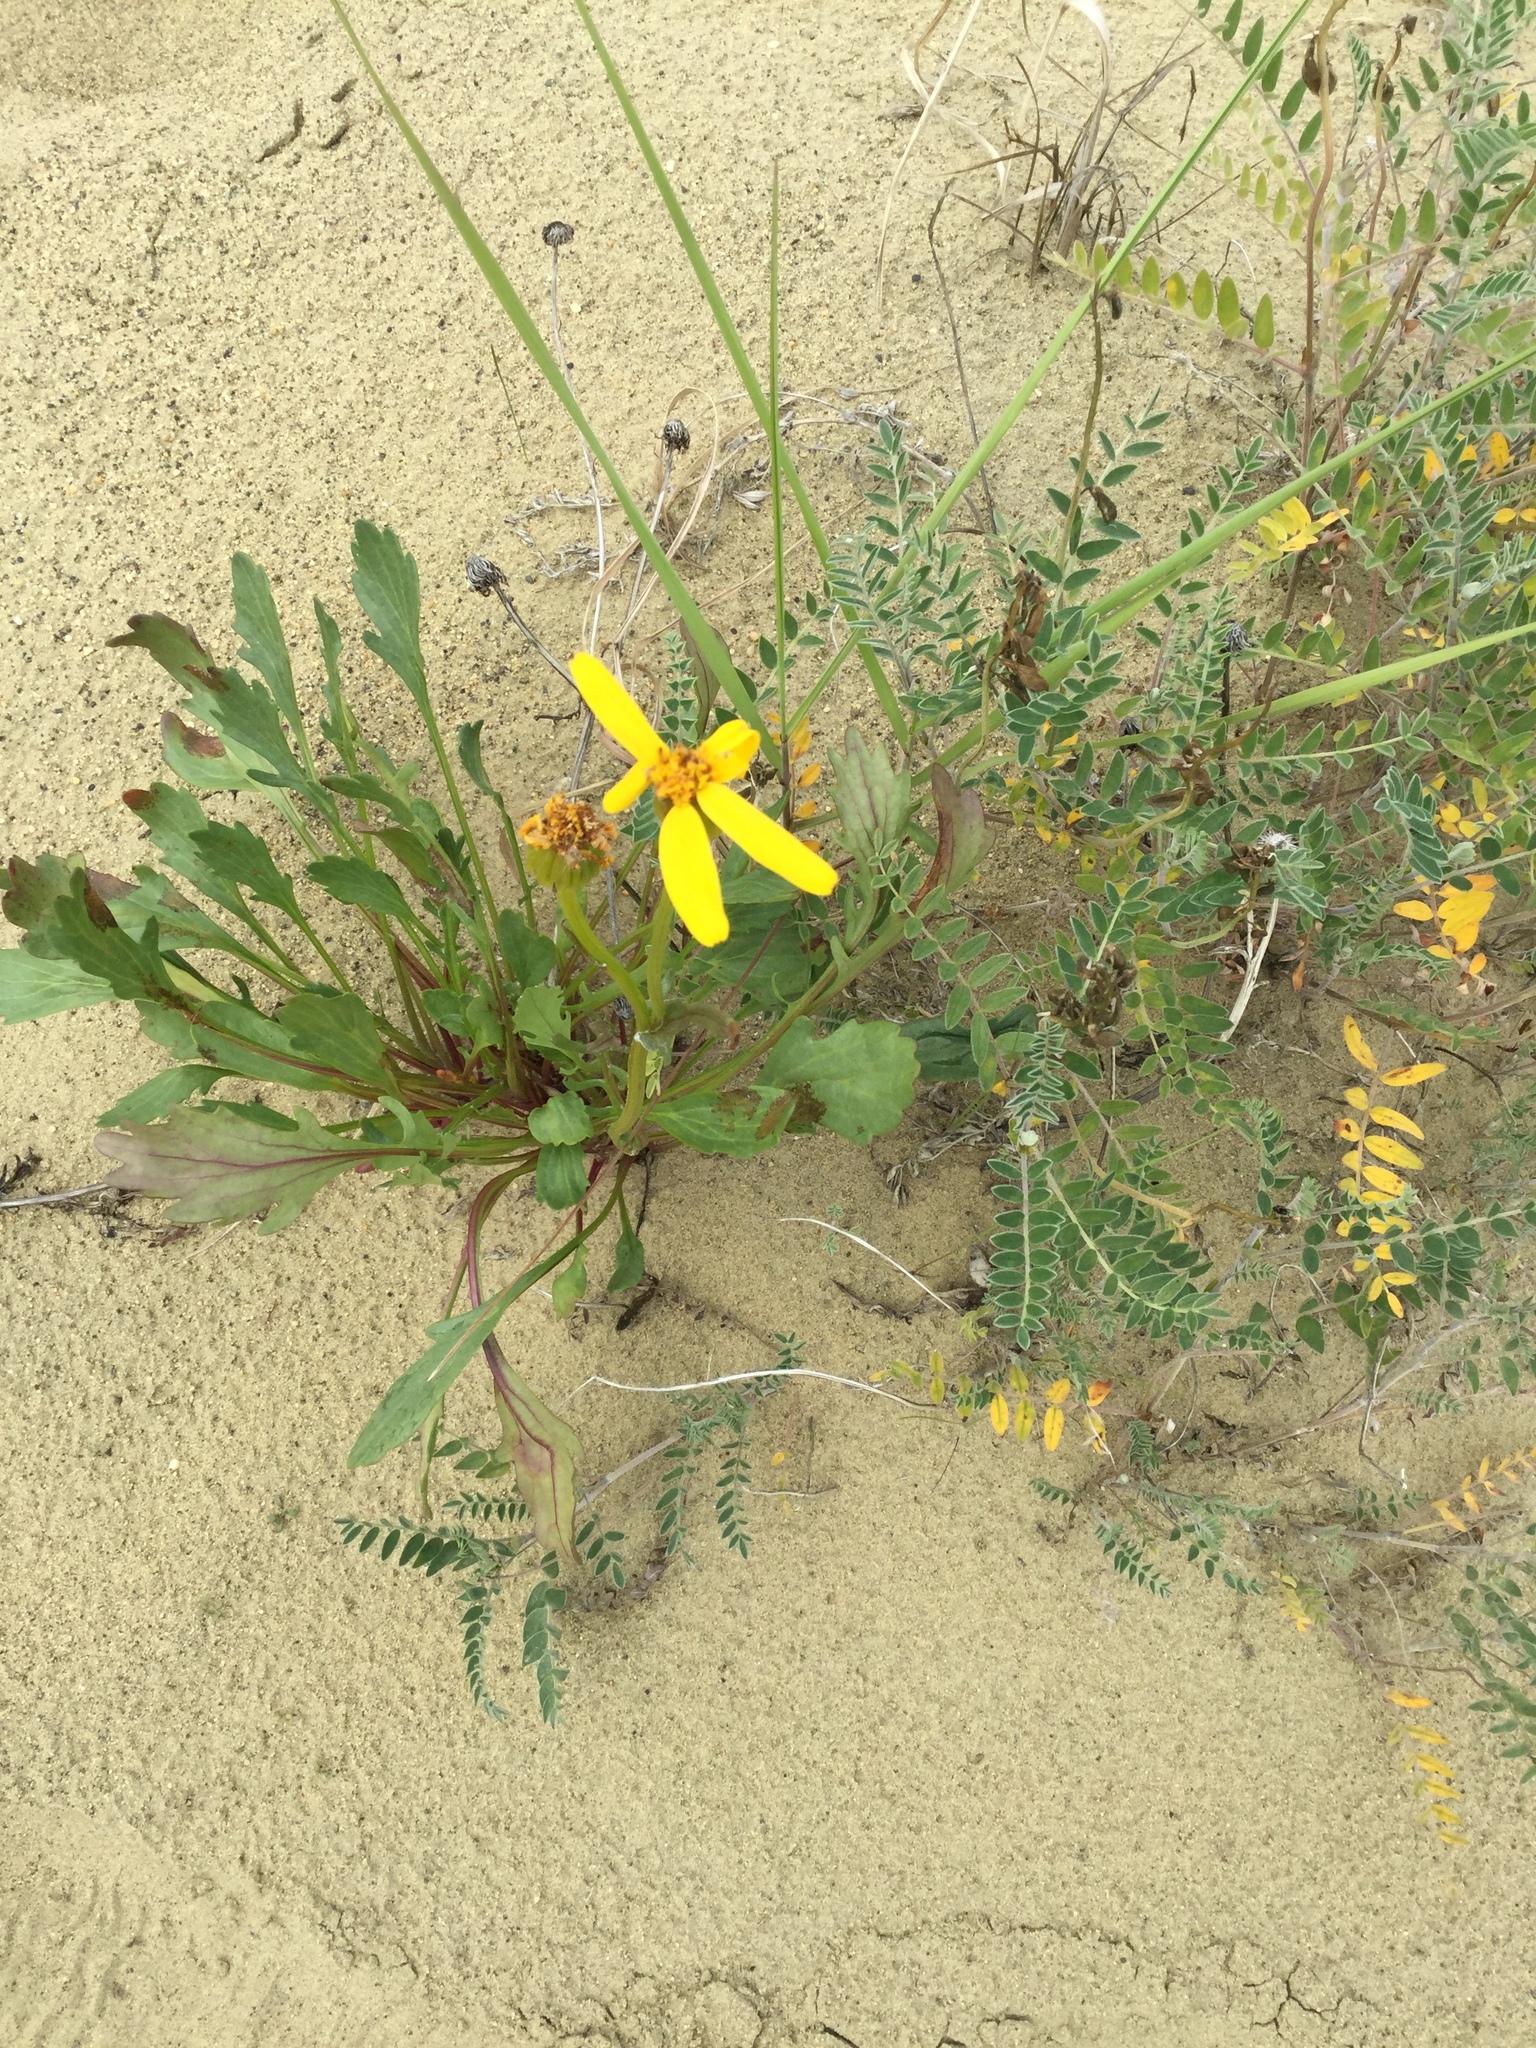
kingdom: Plantae
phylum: Tracheophyta
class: Magnoliopsida
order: Asterales
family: Asteraceae
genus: Packera
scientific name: Packera cymbalaria
